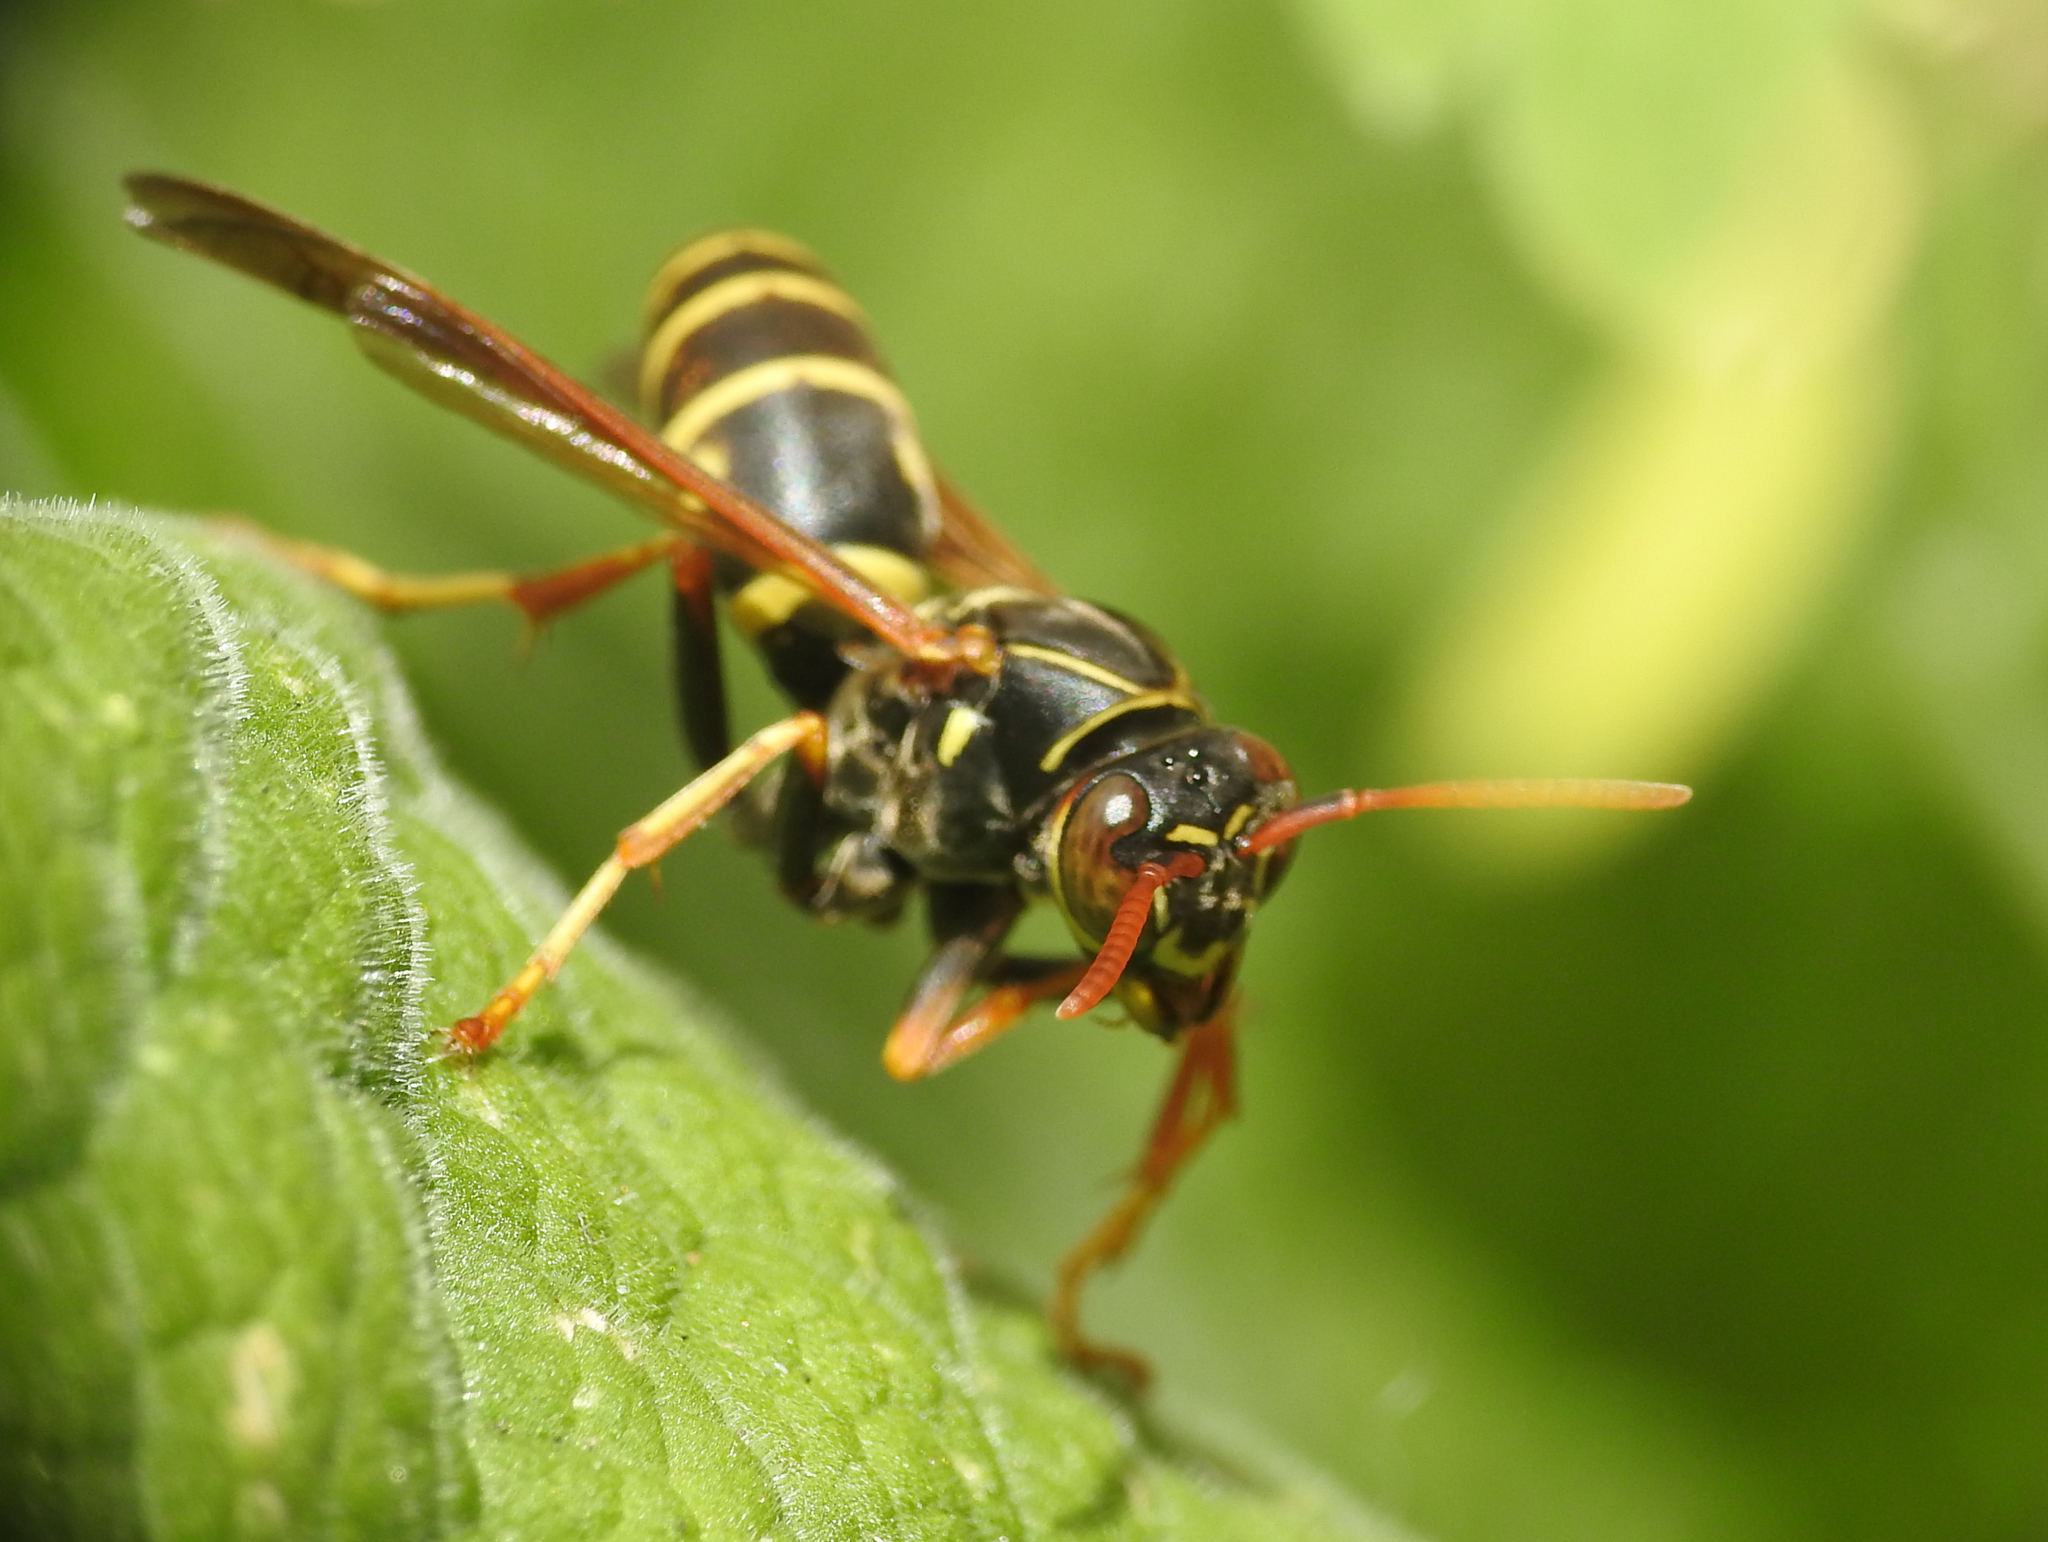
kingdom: Animalia
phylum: Arthropoda
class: Insecta
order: Hymenoptera
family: Eumenidae
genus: Polistes
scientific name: Polistes aurifer
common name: Paper wasp
